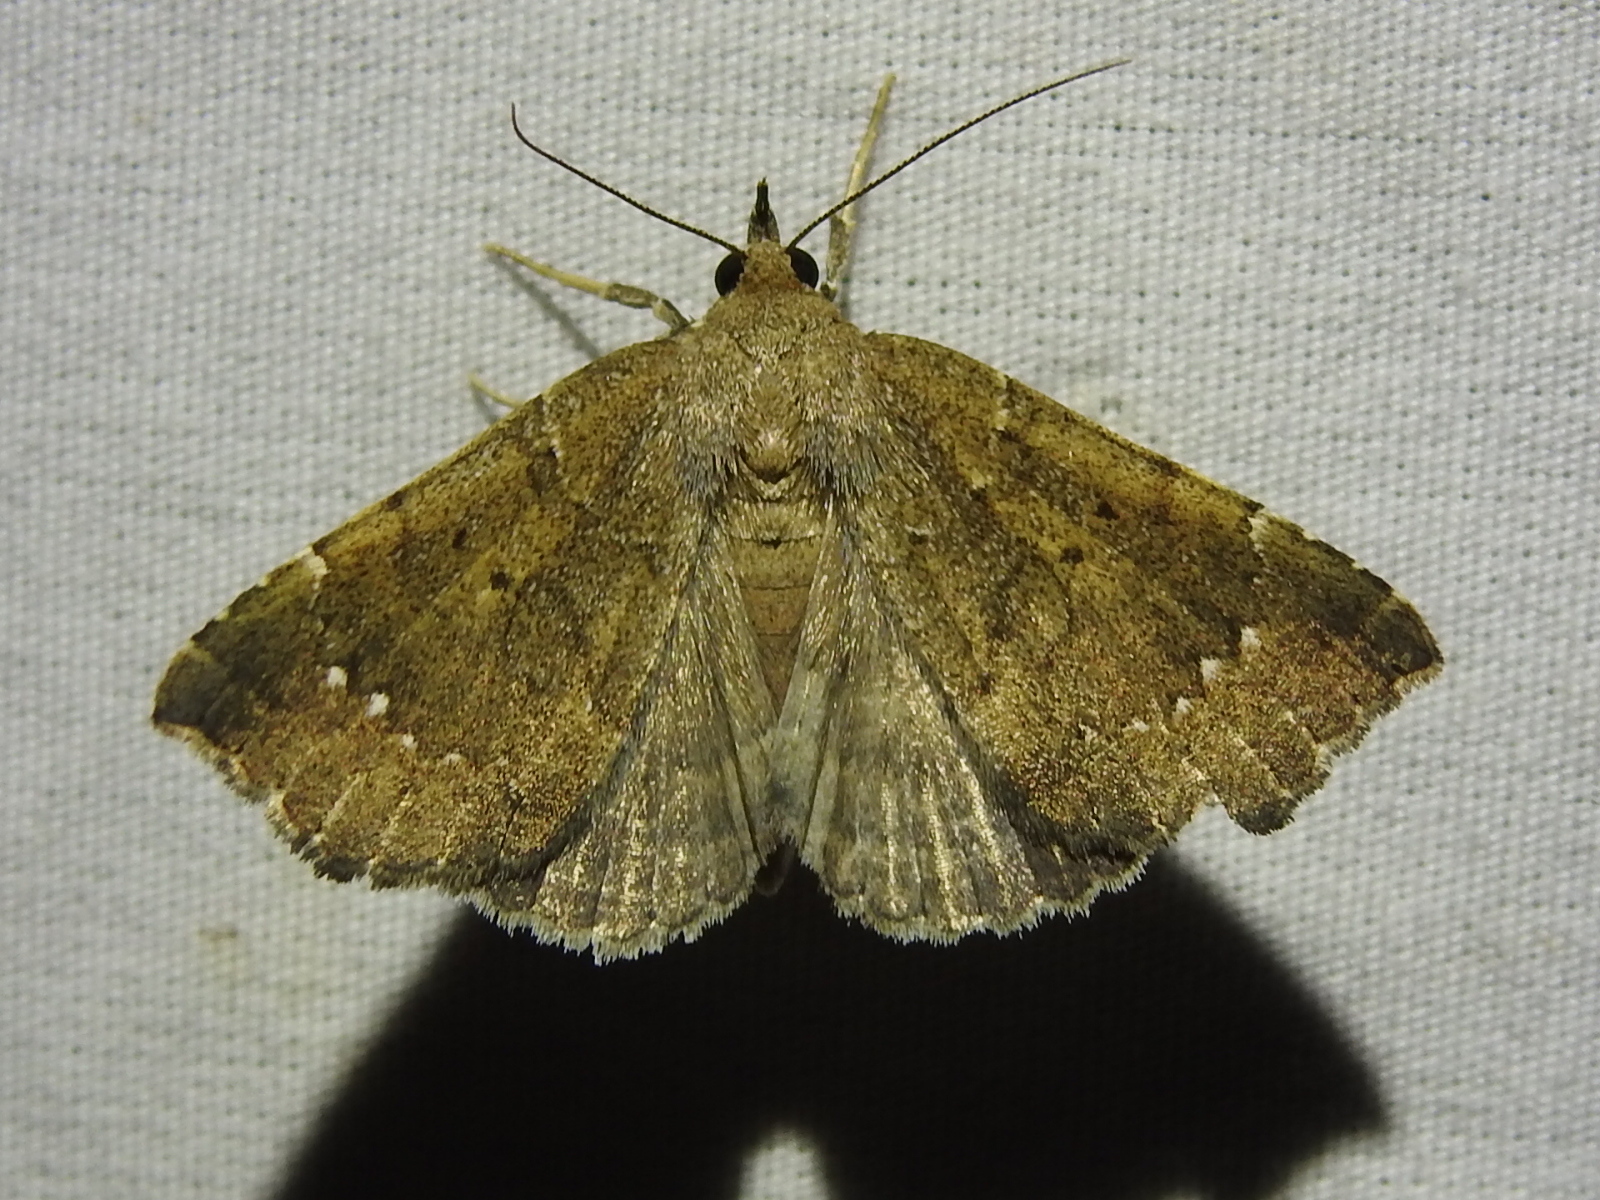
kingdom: Animalia
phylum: Arthropoda
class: Insecta
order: Lepidoptera
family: Erebidae
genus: Focillidia
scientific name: Focillidia texana
